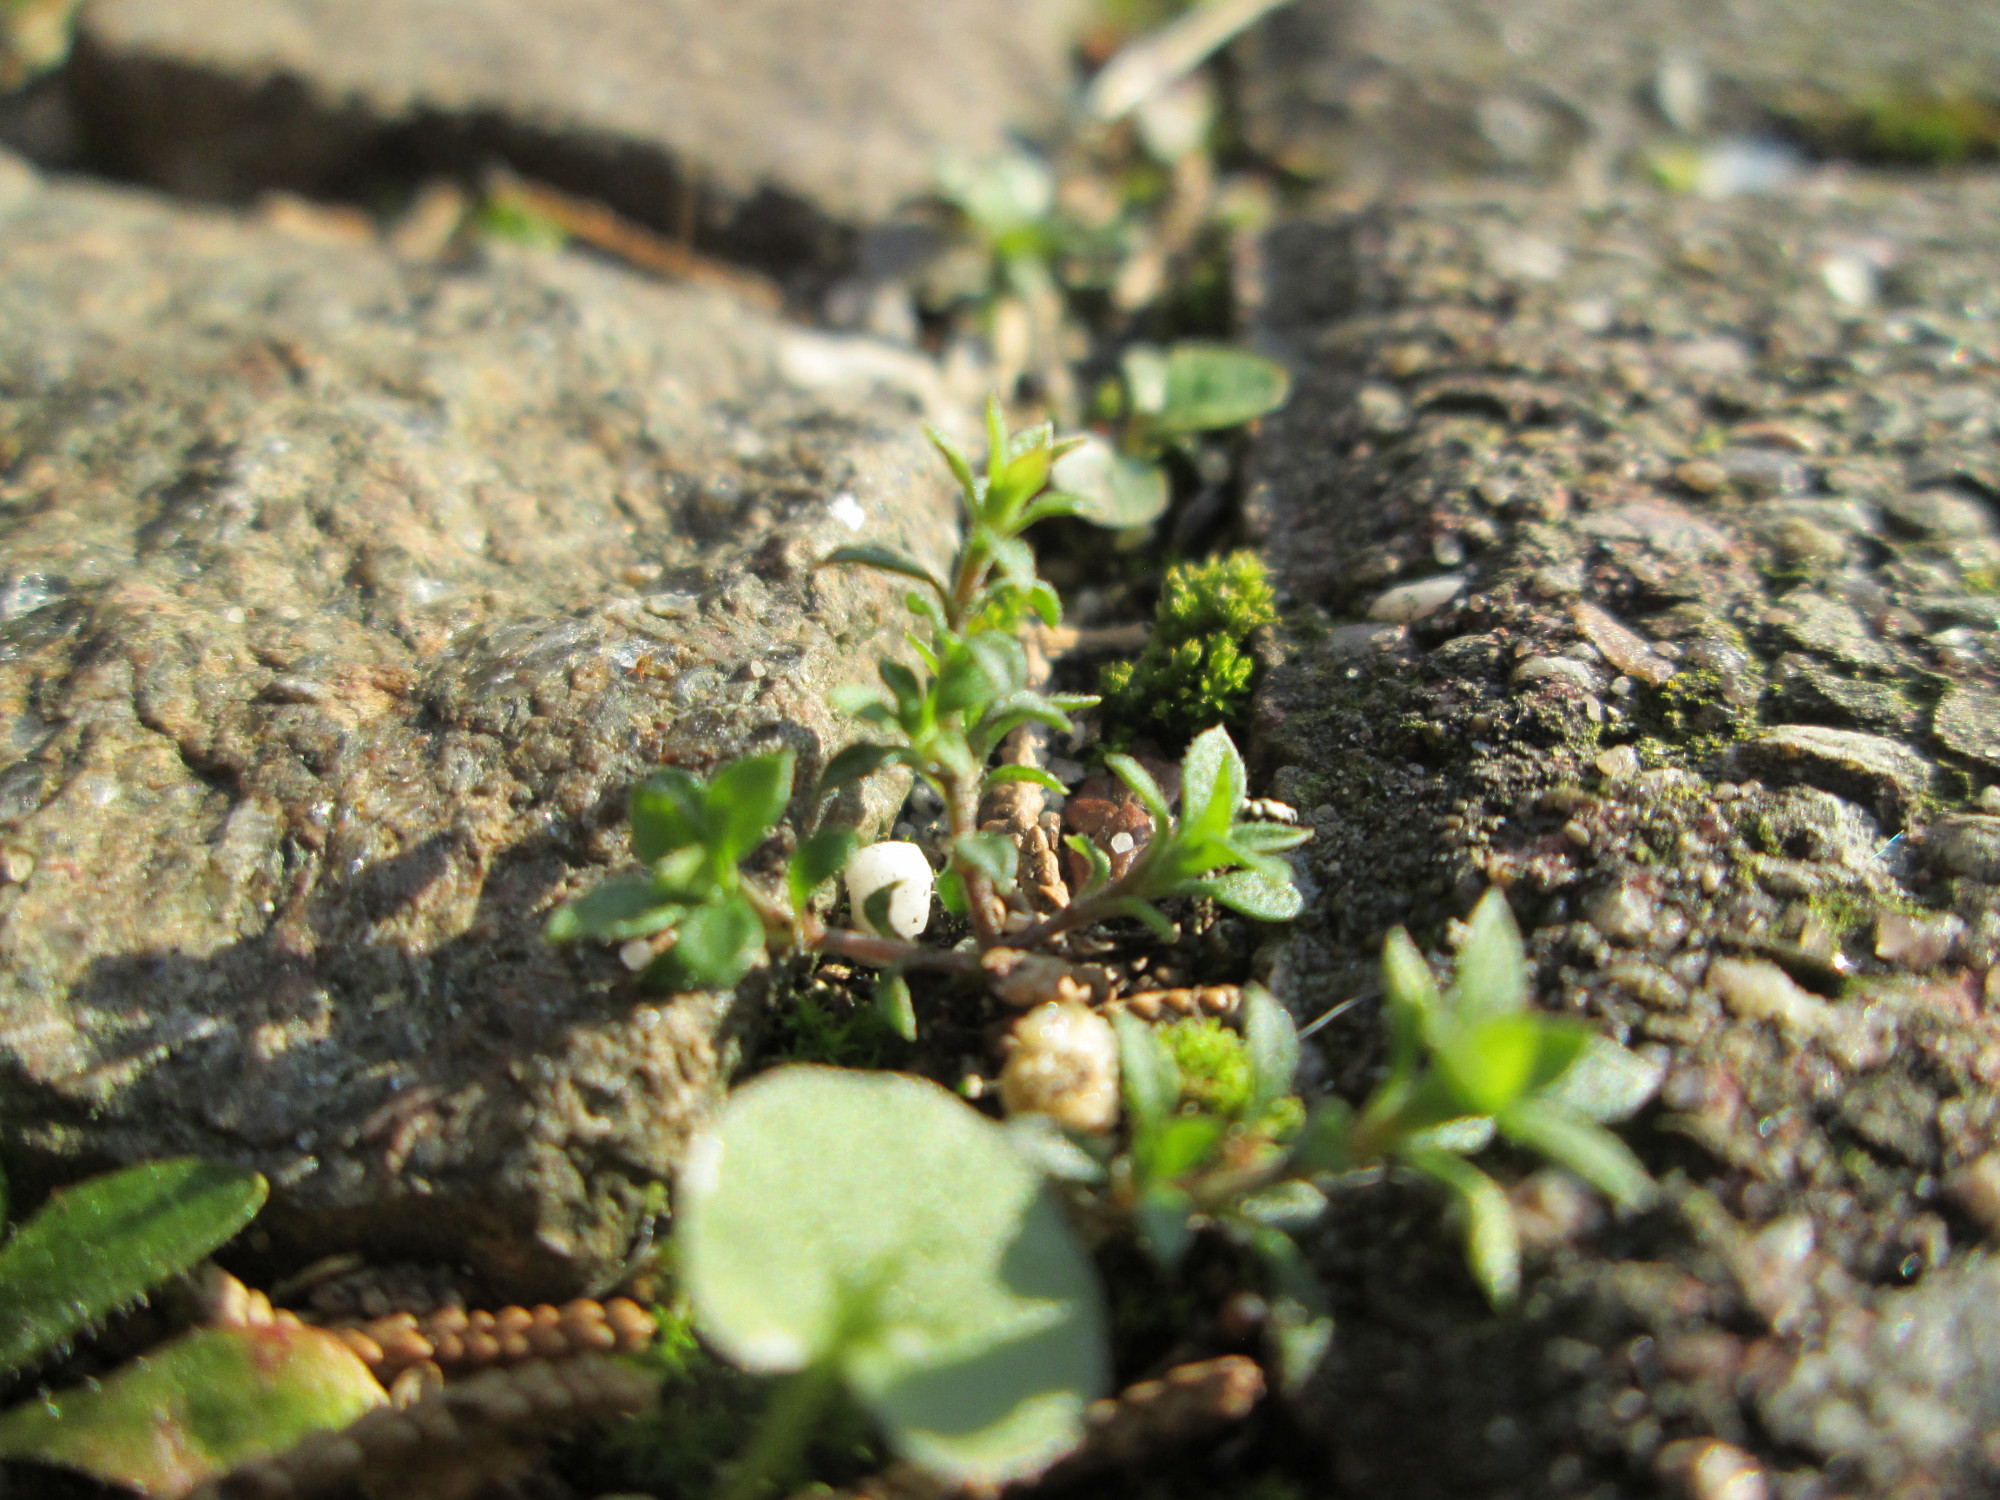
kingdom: Plantae
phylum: Tracheophyta
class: Magnoliopsida
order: Caryophyllales
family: Caryophyllaceae
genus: Arenaria
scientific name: Arenaria serpyllifolia
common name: Thyme-leaved sandwort
